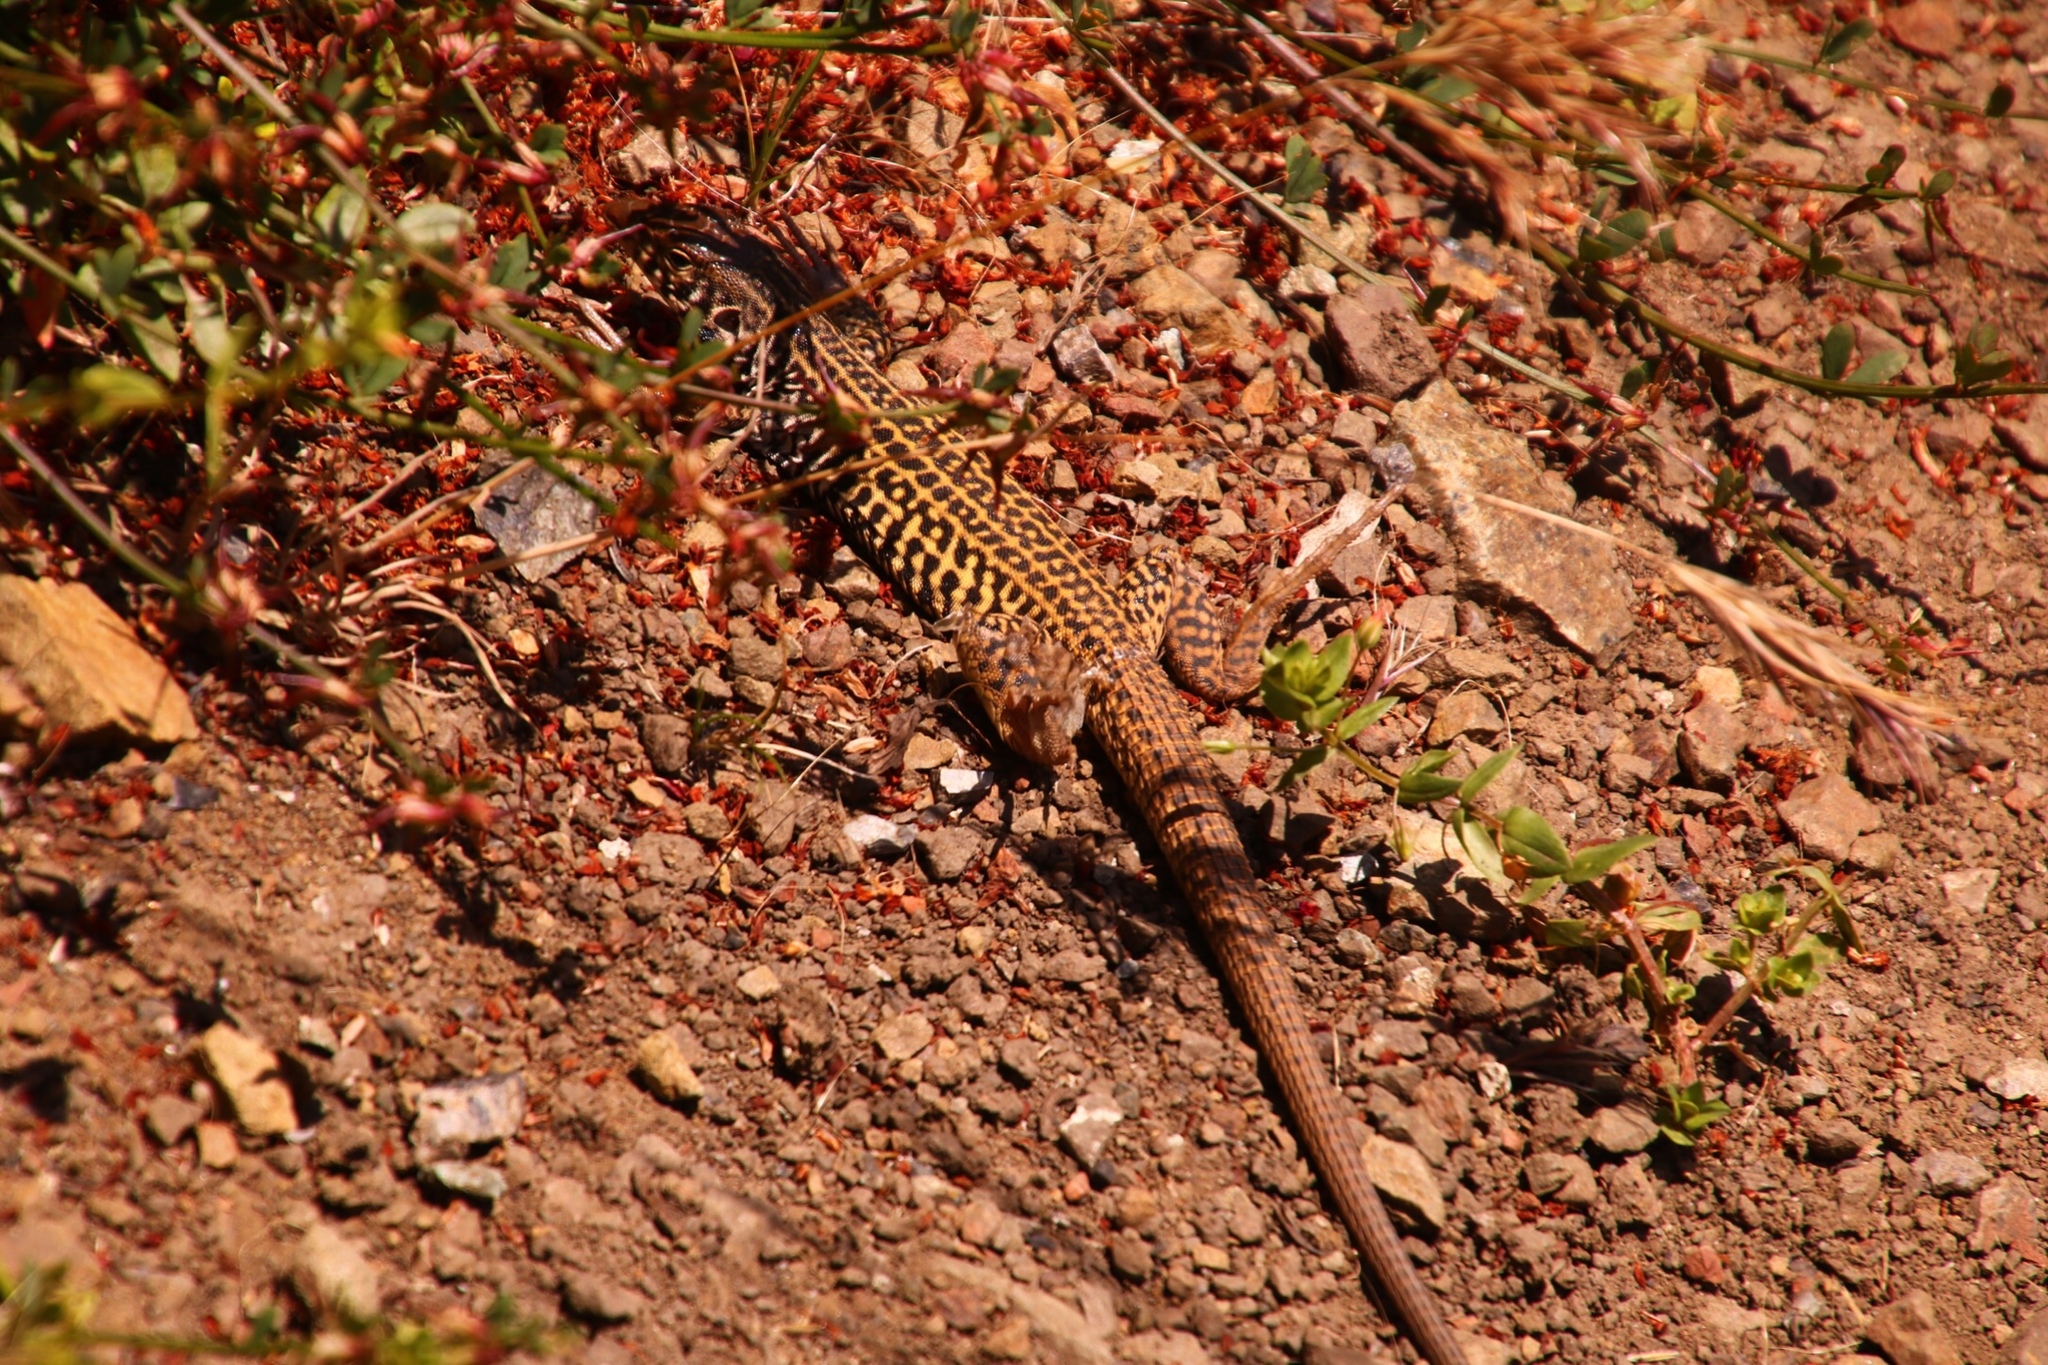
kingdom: Animalia
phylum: Chordata
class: Squamata
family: Teiidae
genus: Aspidoscelis
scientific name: Aspidoscelis tigris
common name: Tiger whiptail
